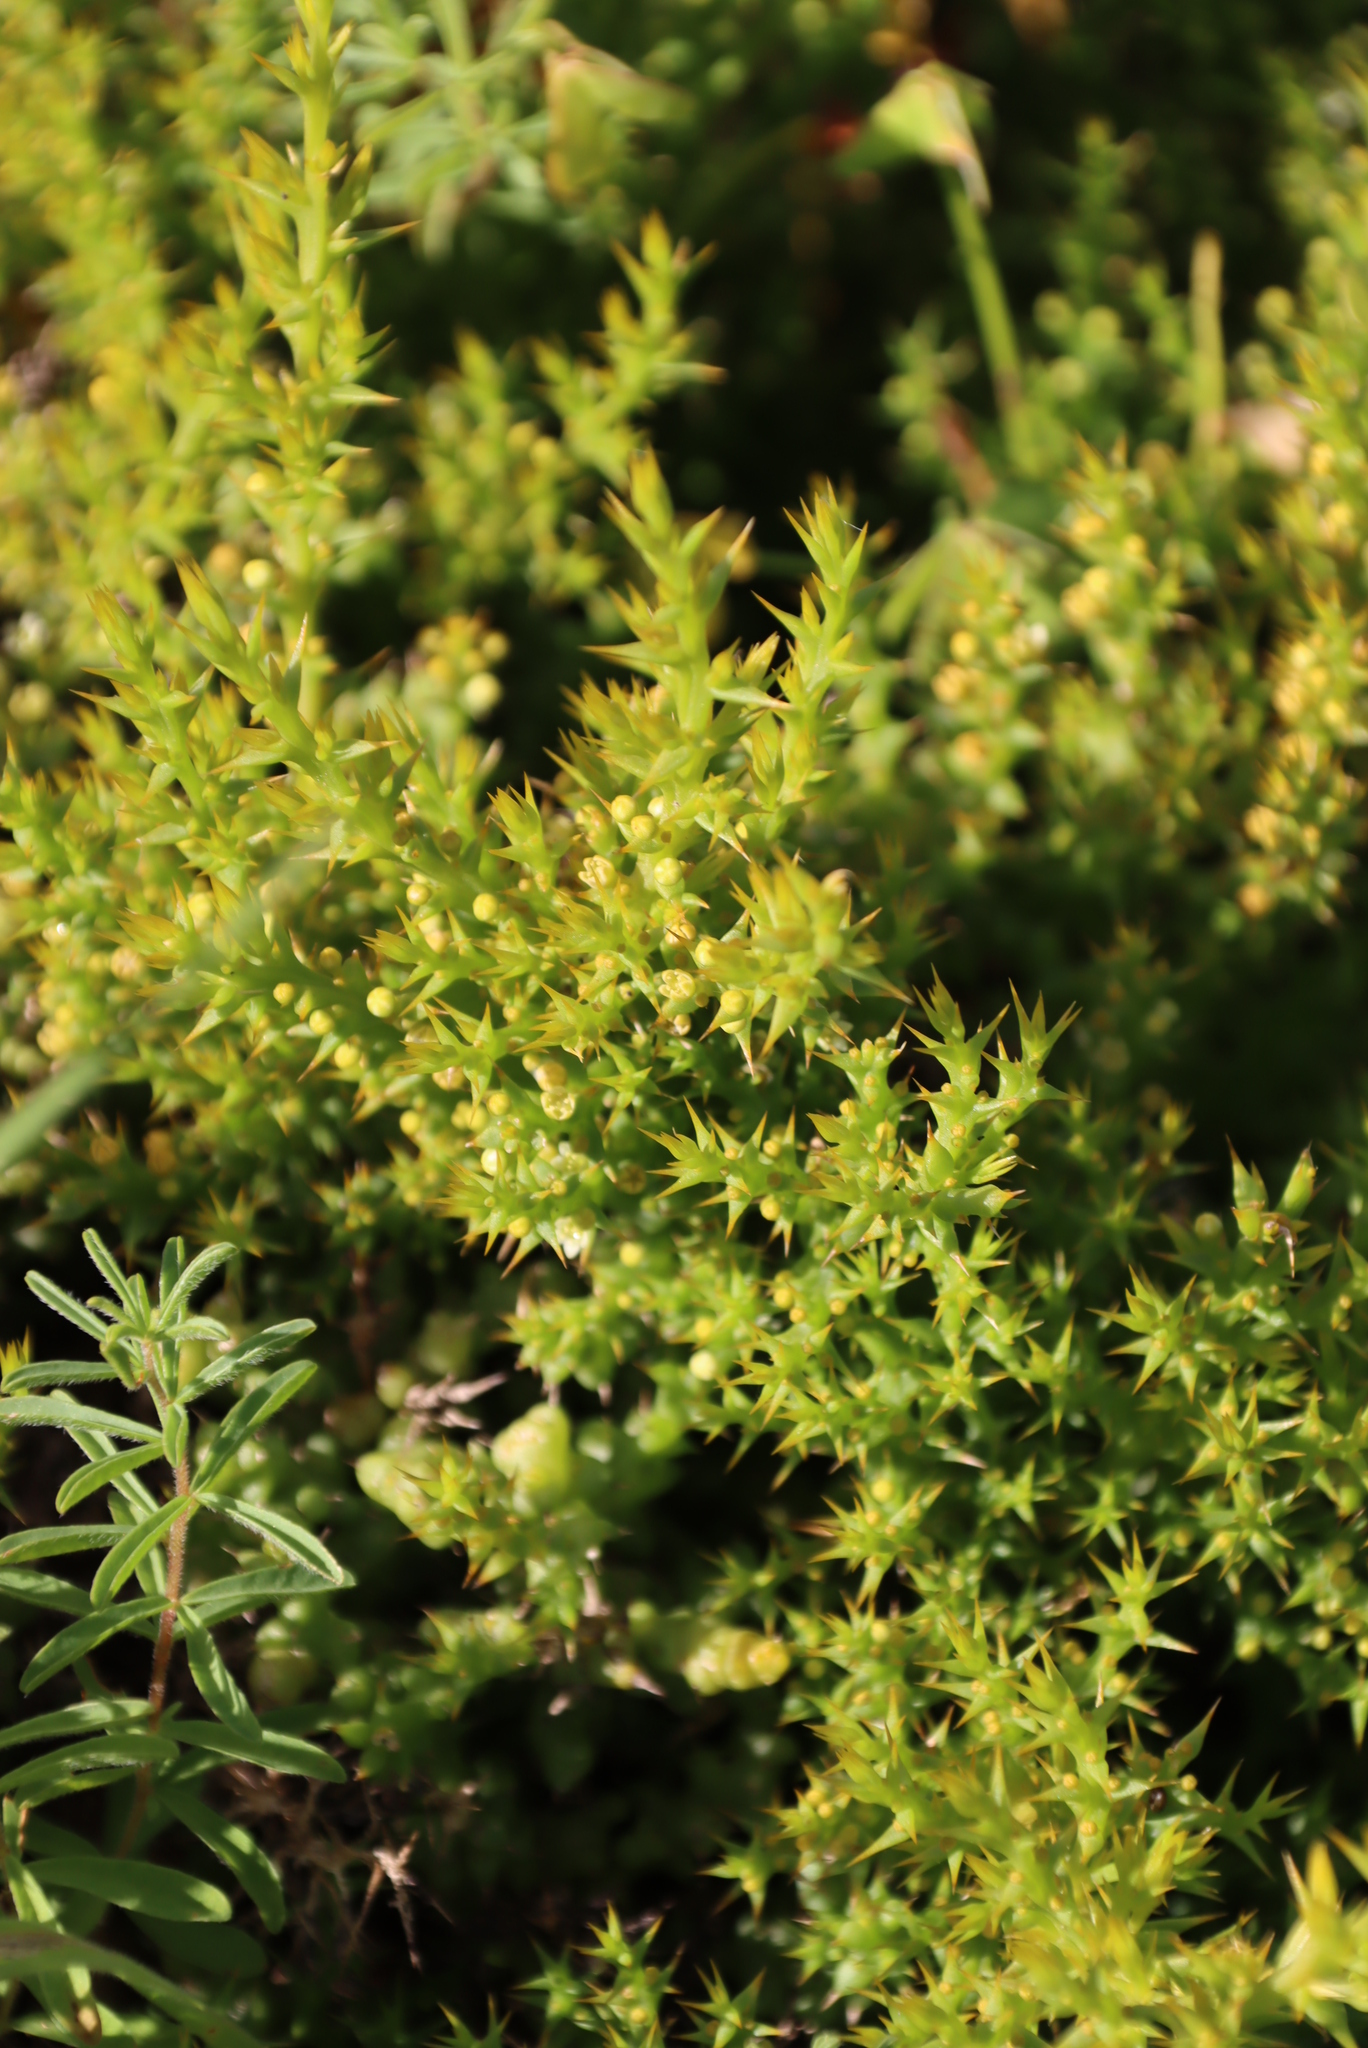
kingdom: Plantae
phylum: Tracheophyta
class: Magnoliopsida
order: Santalales
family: Thesiaceae
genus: Thesium
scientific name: Thesium spinosum
